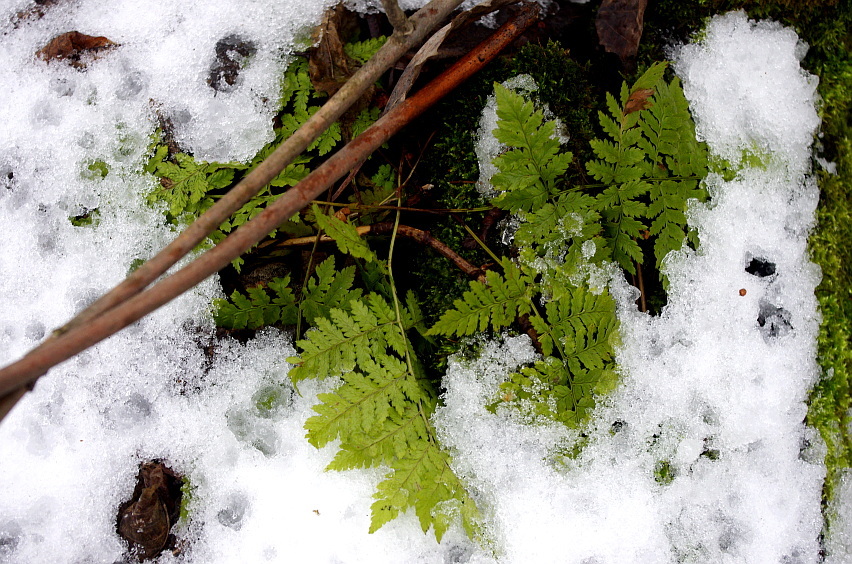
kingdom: Plantae
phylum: Tracheophyta
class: Polypodiopsida
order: Polypodiales
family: Dryopteridaceae
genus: Dryopteris
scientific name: Dryopteris carthusiana
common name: Narrow buckler-fern
